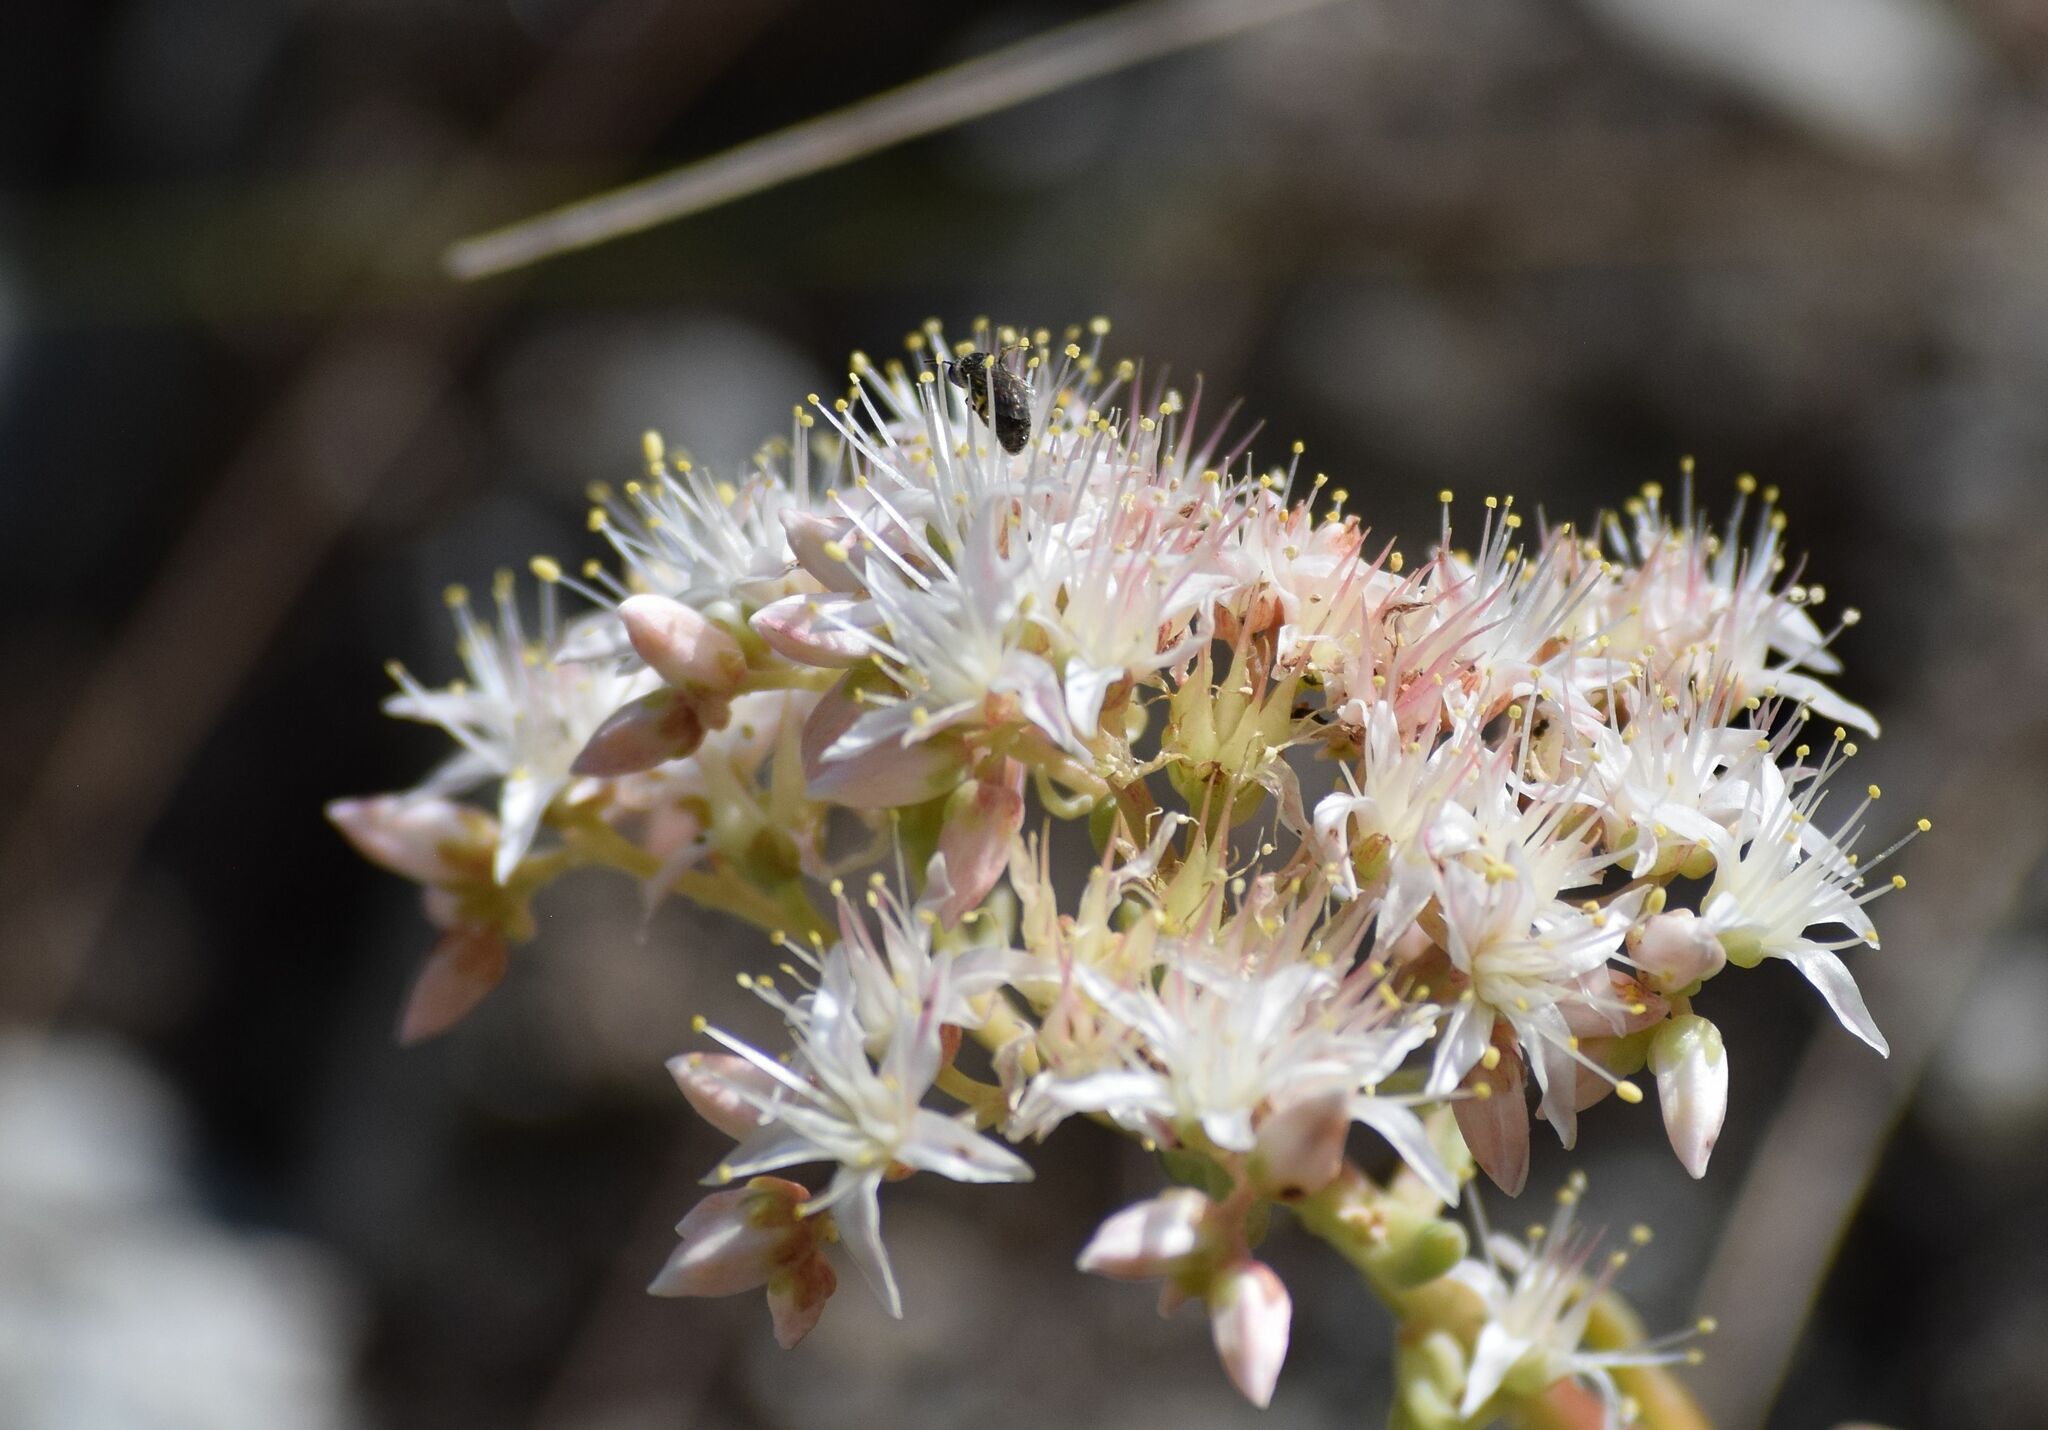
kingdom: Plantae
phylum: Tracheophyta
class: Magnoliopsida
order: Saxifragales
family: Crassulaceae
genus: Dudleya
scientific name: Dudleya densiflora
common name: San gabriel mountains dudleya
